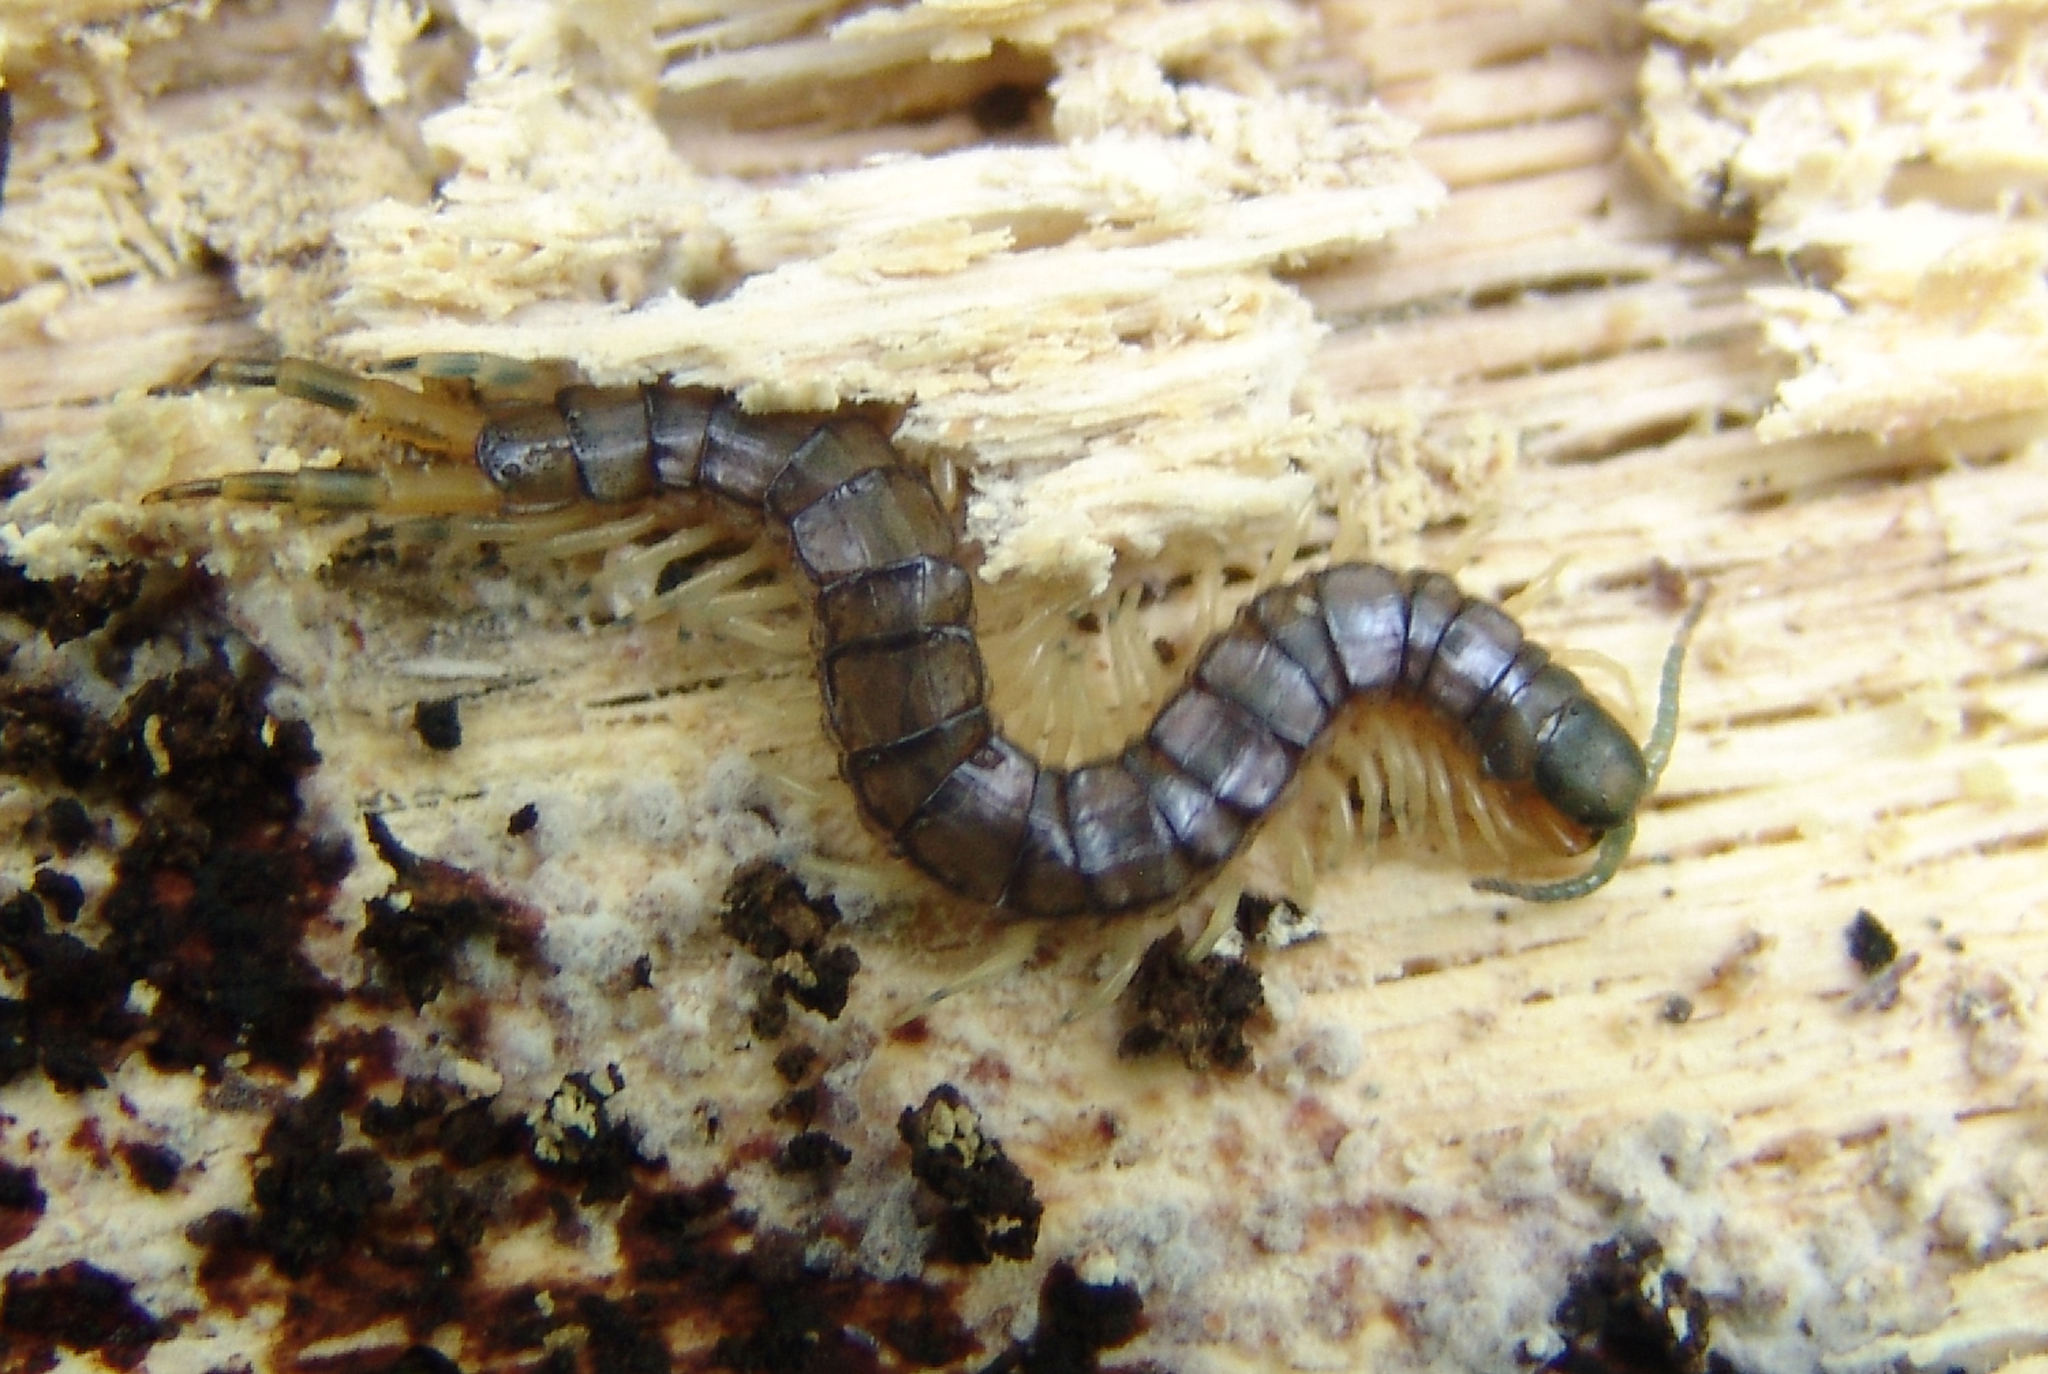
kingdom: Animalia
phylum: Arthropoda
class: Chilopoda
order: Scolopendromorpha
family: Scolopendridae
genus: Hemiscolopendra
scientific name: Hemiscolopendra marginata
